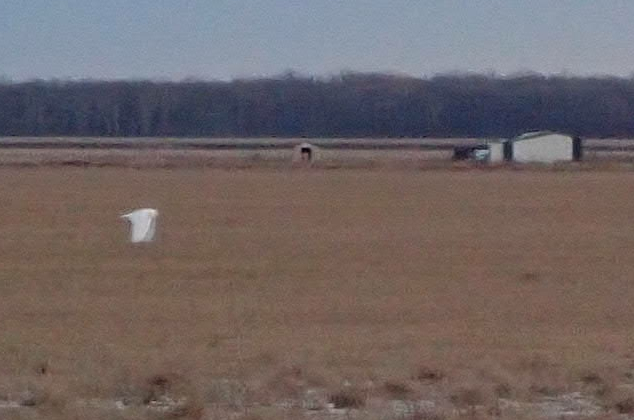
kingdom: Animalia
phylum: Chordata
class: Aves
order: Strigiformes
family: Strigidae
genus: Bubo
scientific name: Bubo scandiacus
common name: Snowy owl
